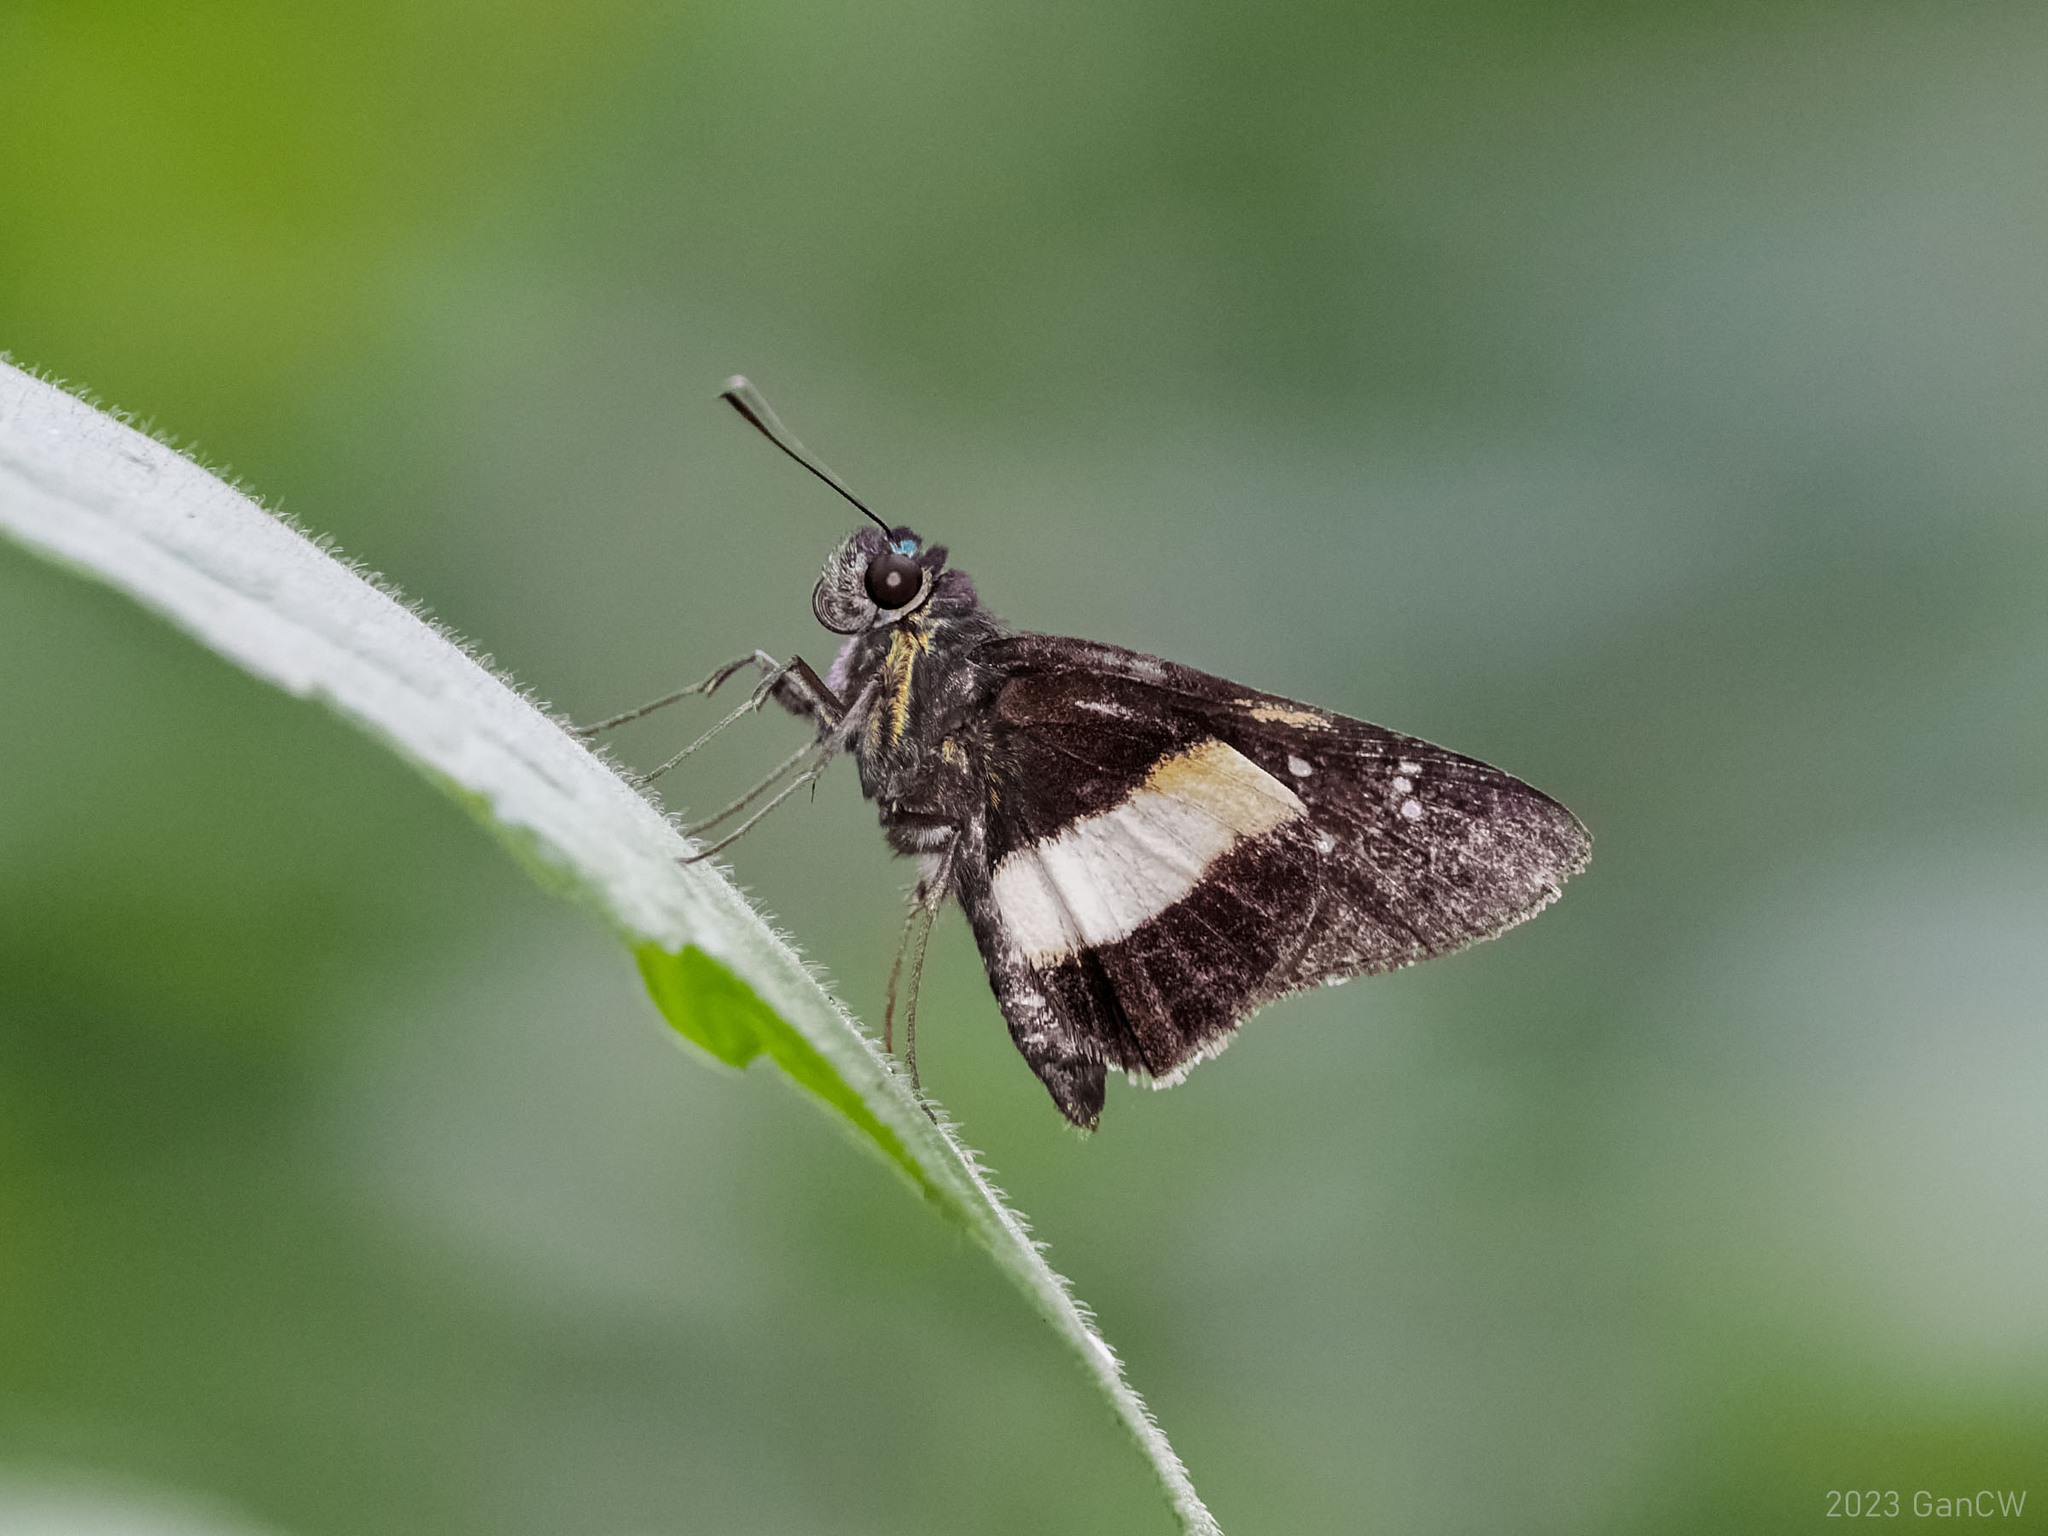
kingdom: Animalia
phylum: Arthropoda
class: Insecta
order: Lepidoptera
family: Hesperiidae
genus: Acerbas
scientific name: Acerbas duris
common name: Banded palmer
